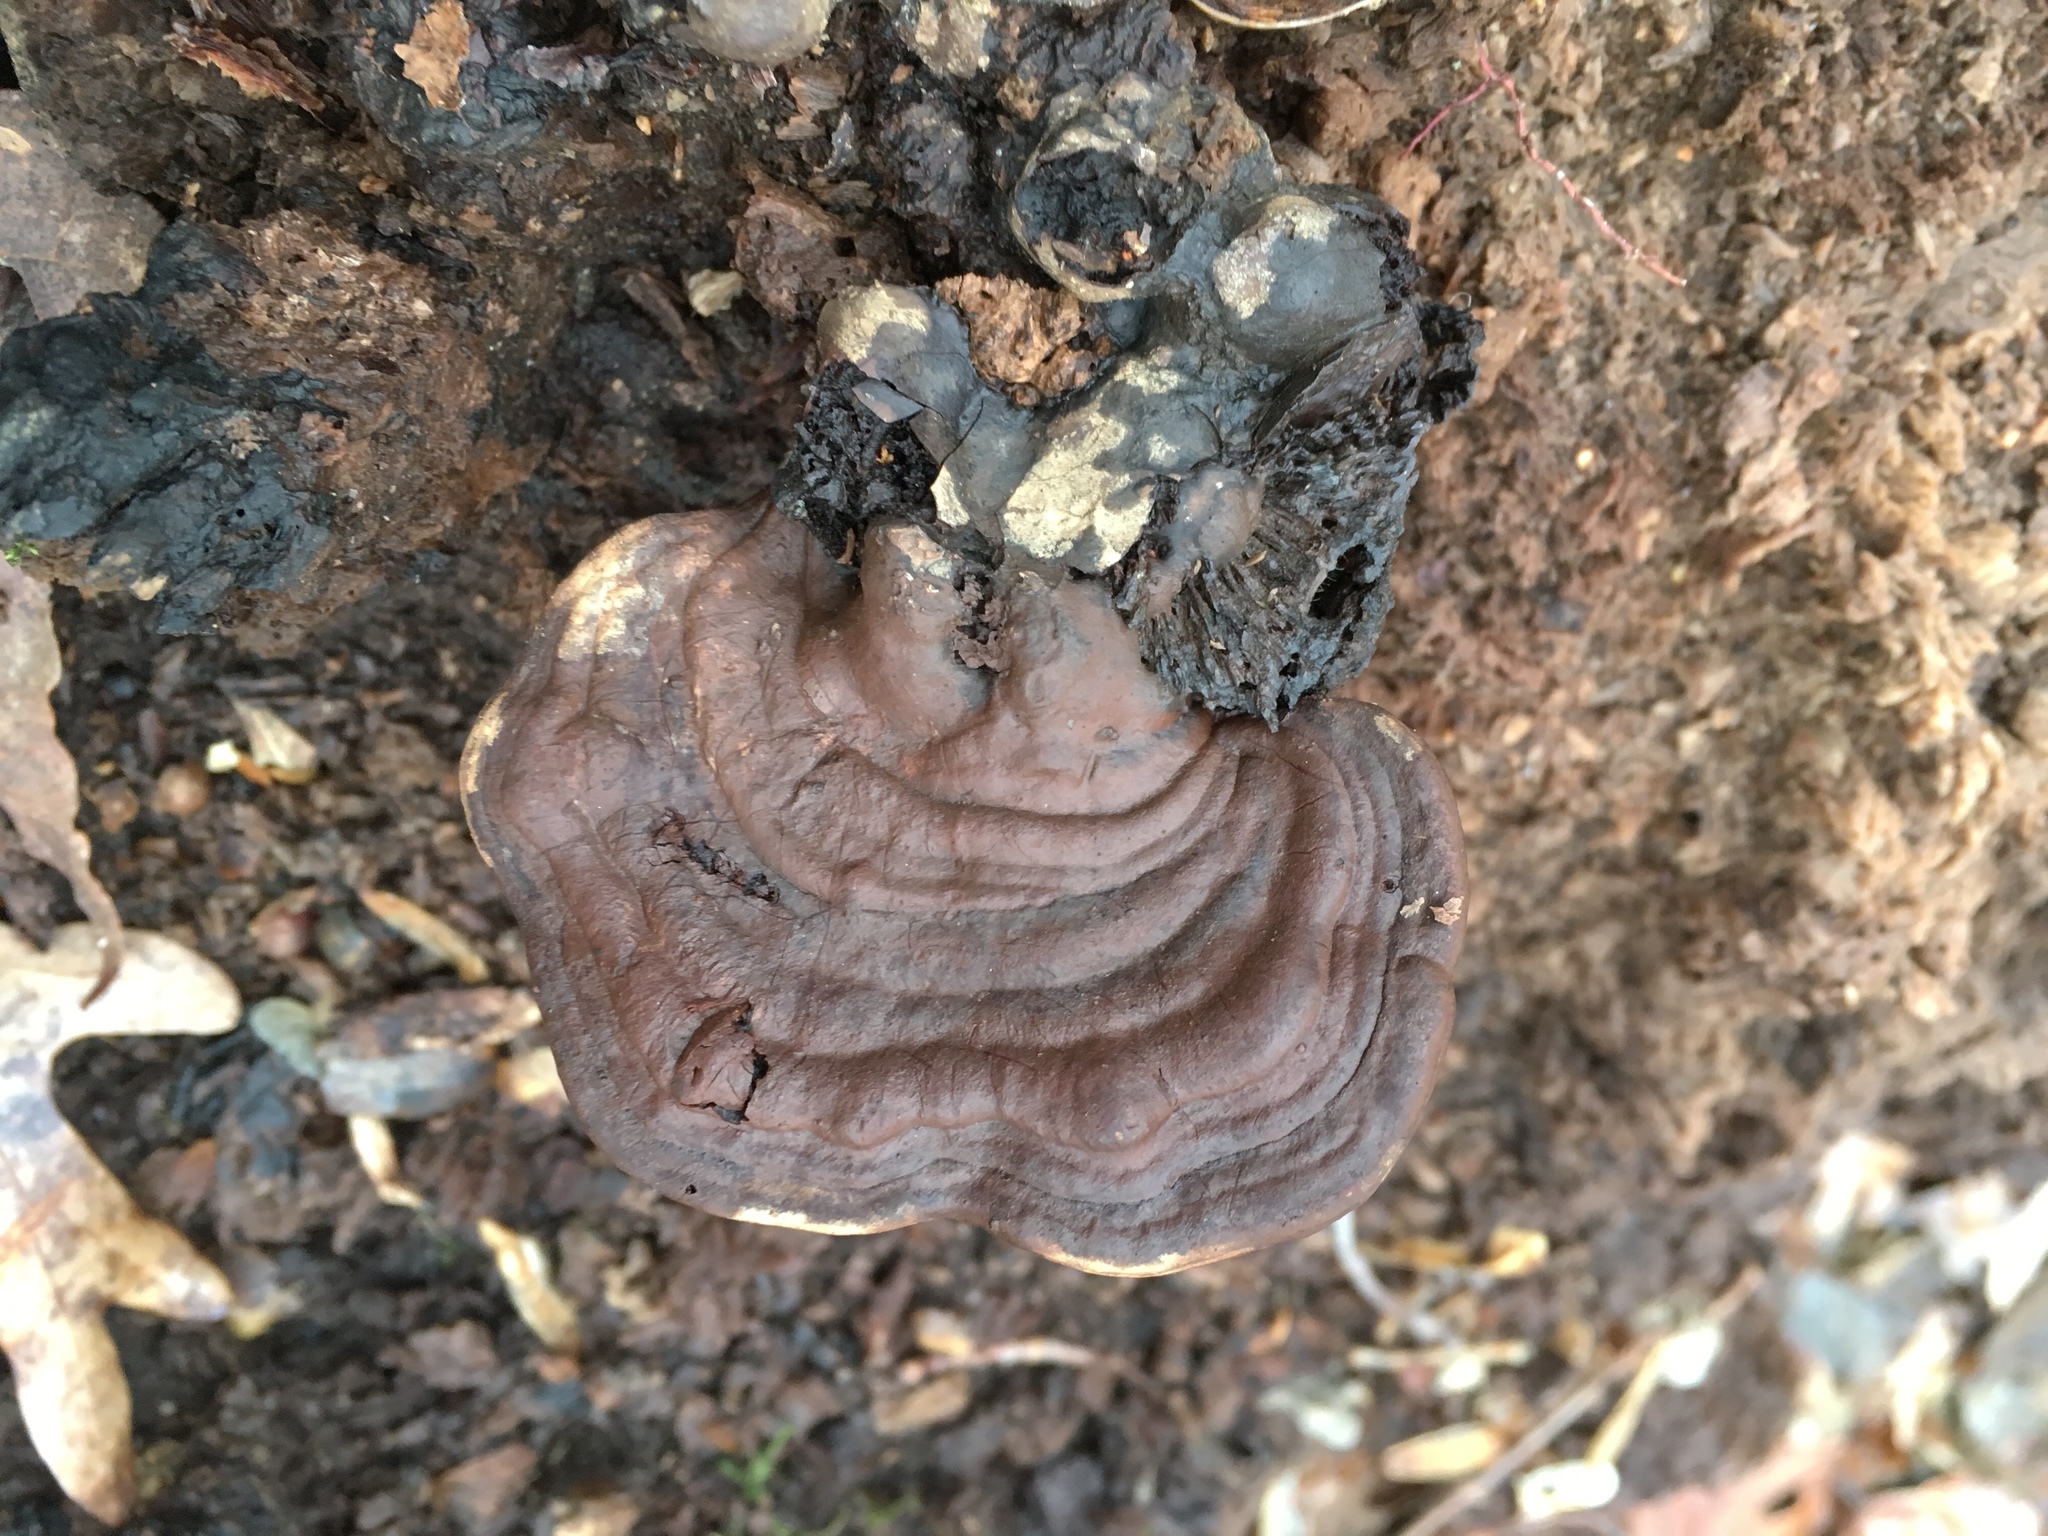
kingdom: Fungi
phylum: Basidiomycota
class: Agaricomycetes
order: Polyporales
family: Polyporaceae
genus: Ganoderma
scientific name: Ganoderma lobatum
